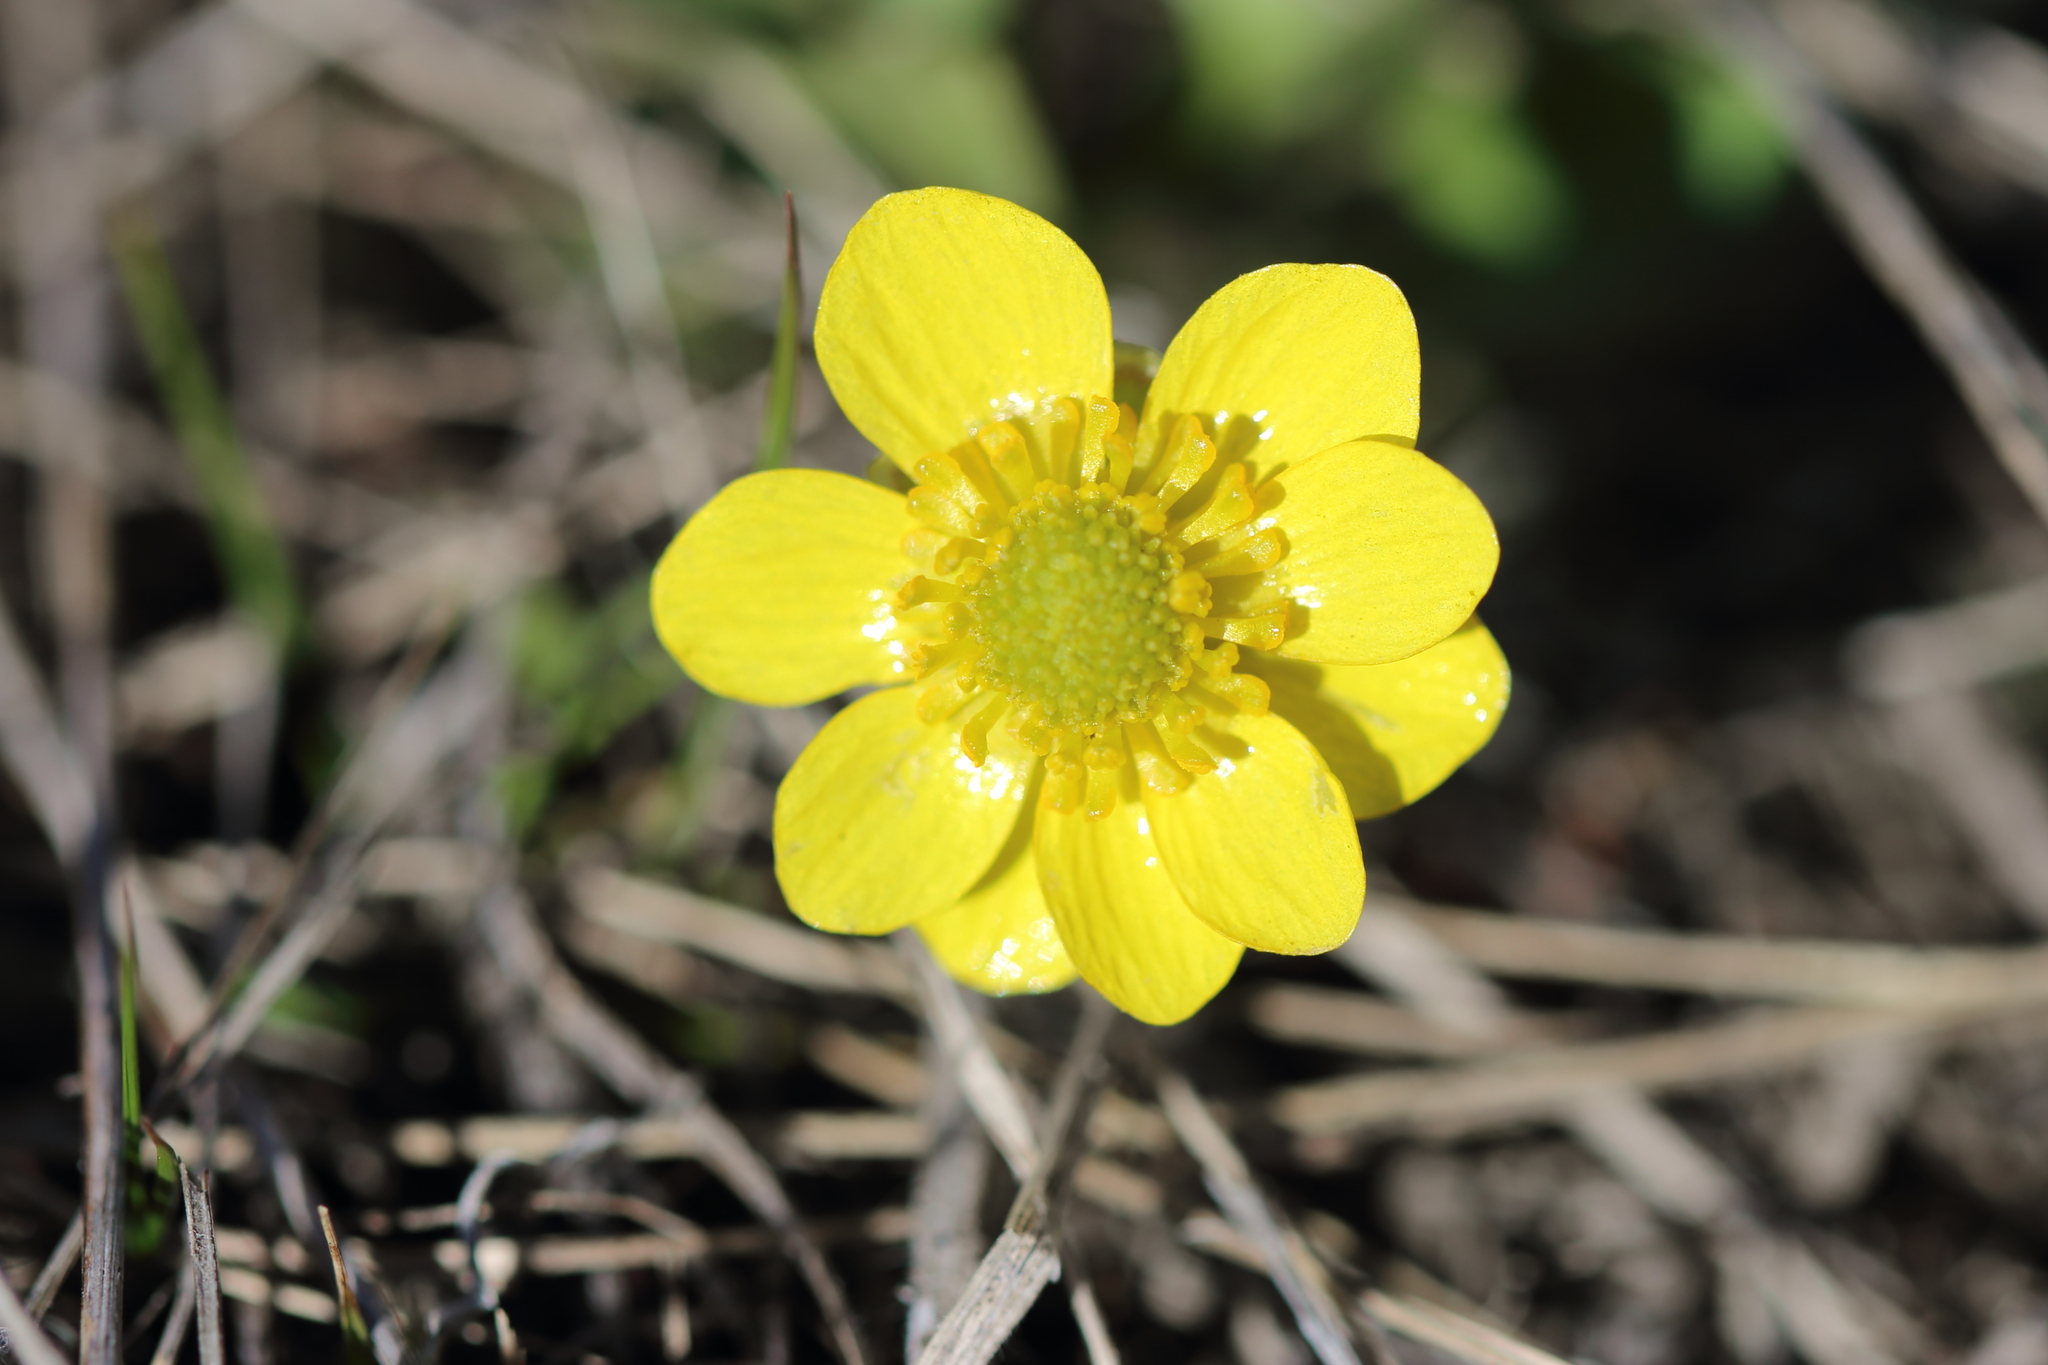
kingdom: Plantae
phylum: Tracheophyta
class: Magnoliopsida
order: Ranunculales
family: Ranunculaceae
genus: Ranunculus
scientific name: Ranunculus glaberrimus
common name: Sagebrush buttercup
